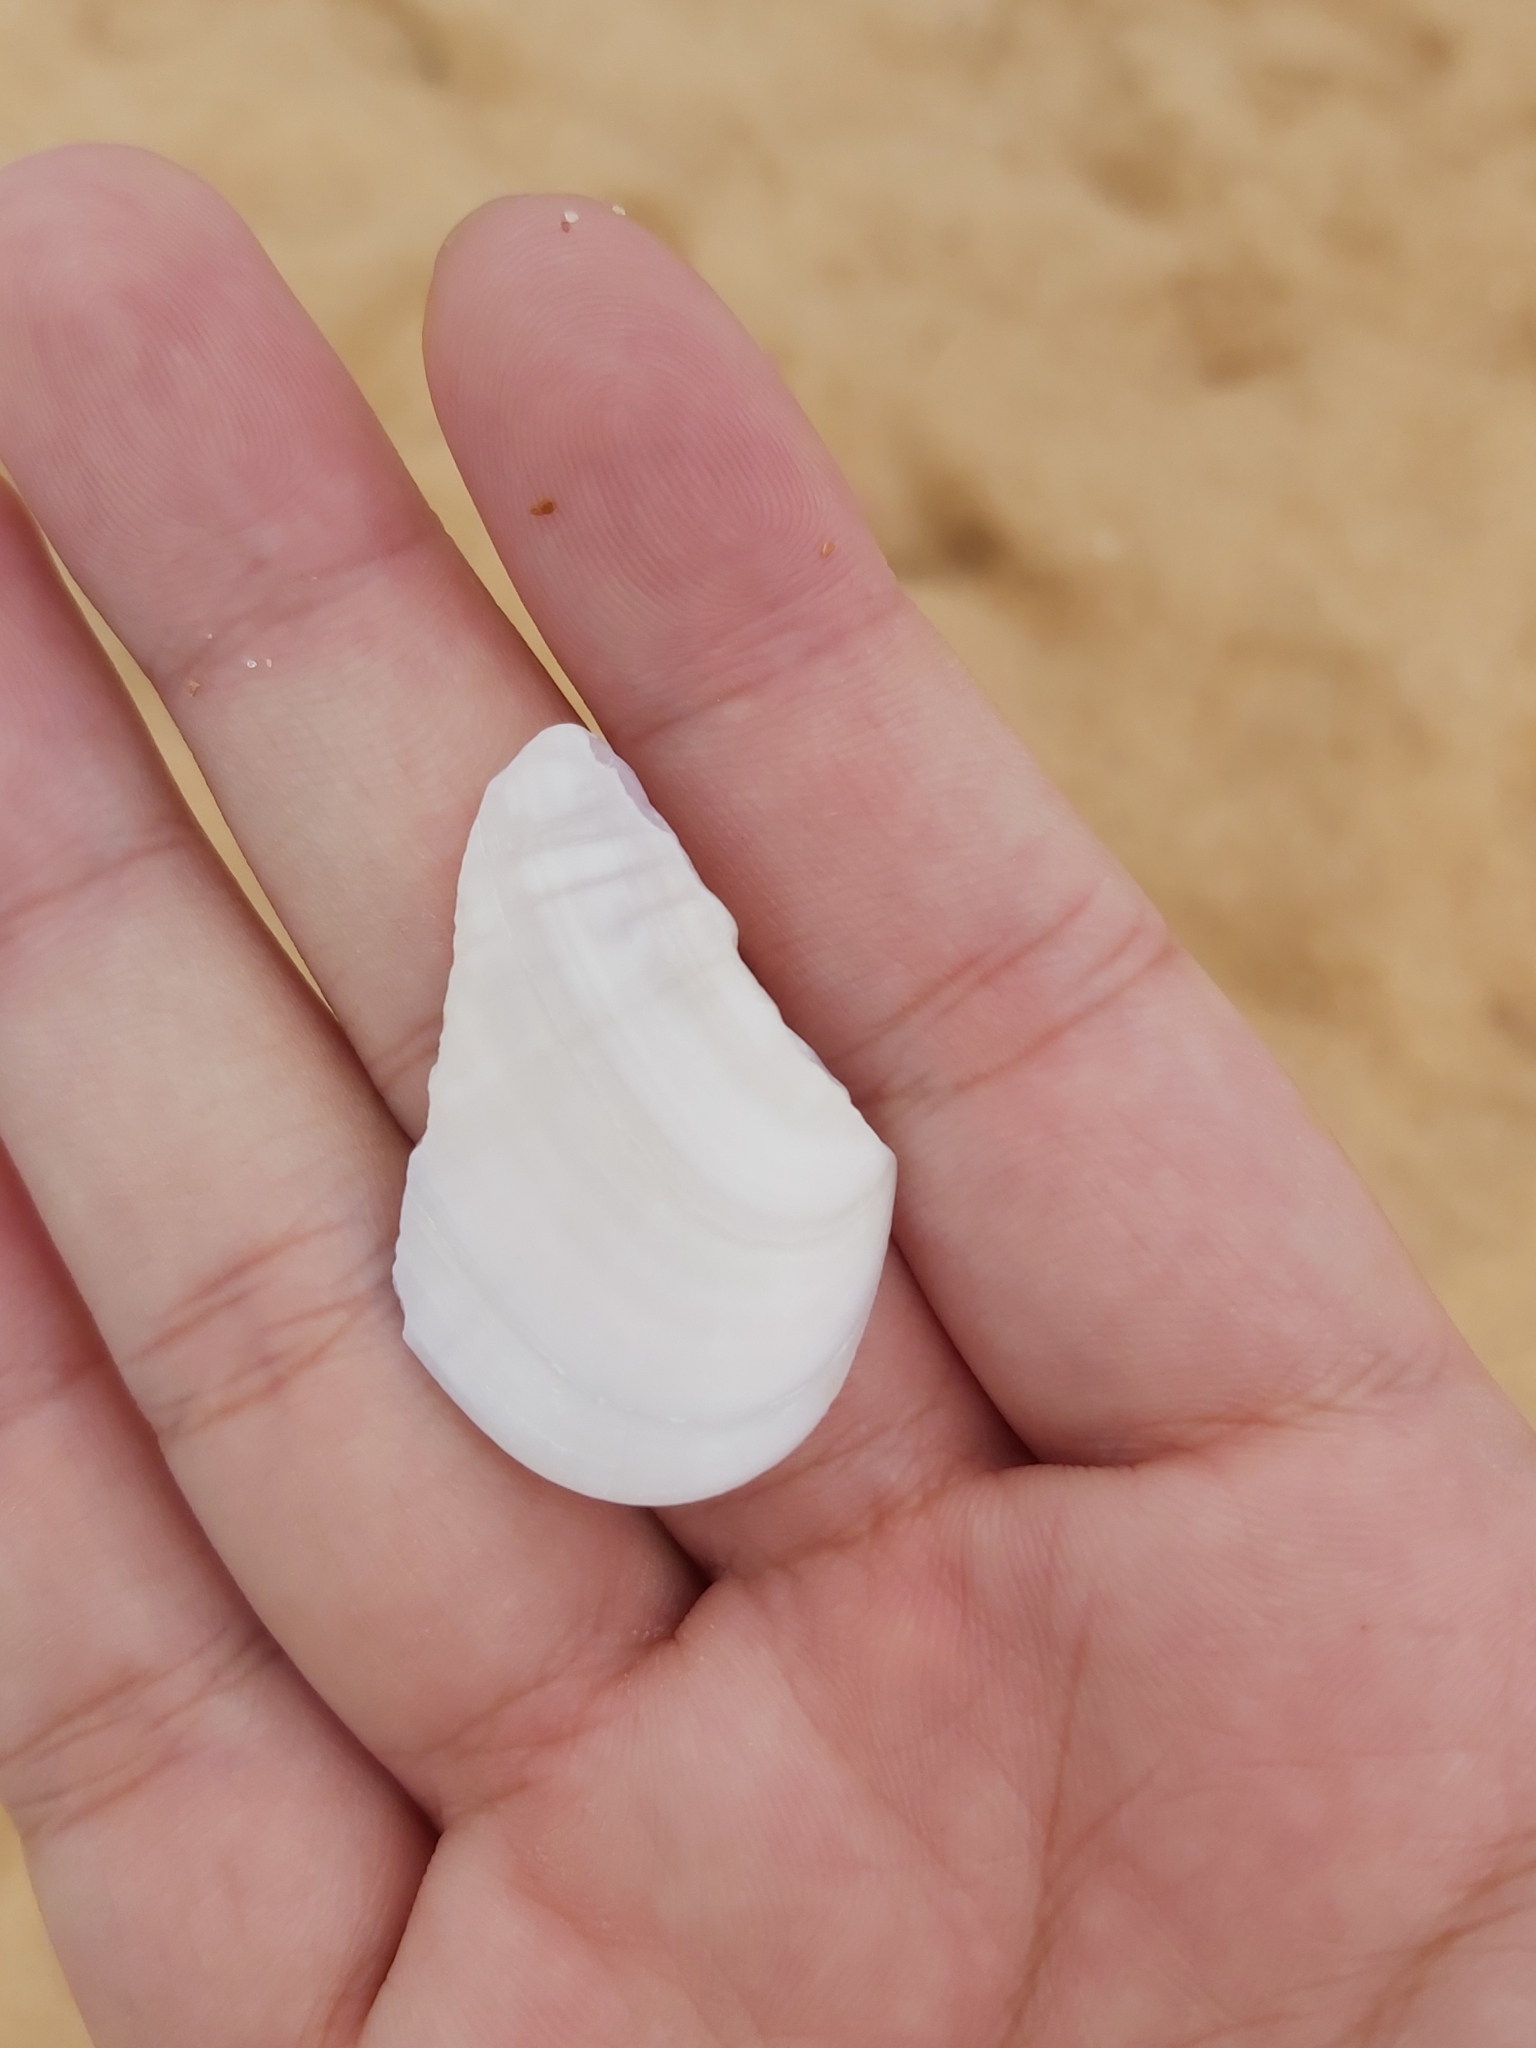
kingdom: Animalia
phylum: Mollusca
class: Bivalvia
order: Cardiida
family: Donacidae
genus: Latona
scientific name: Latona deltoides
